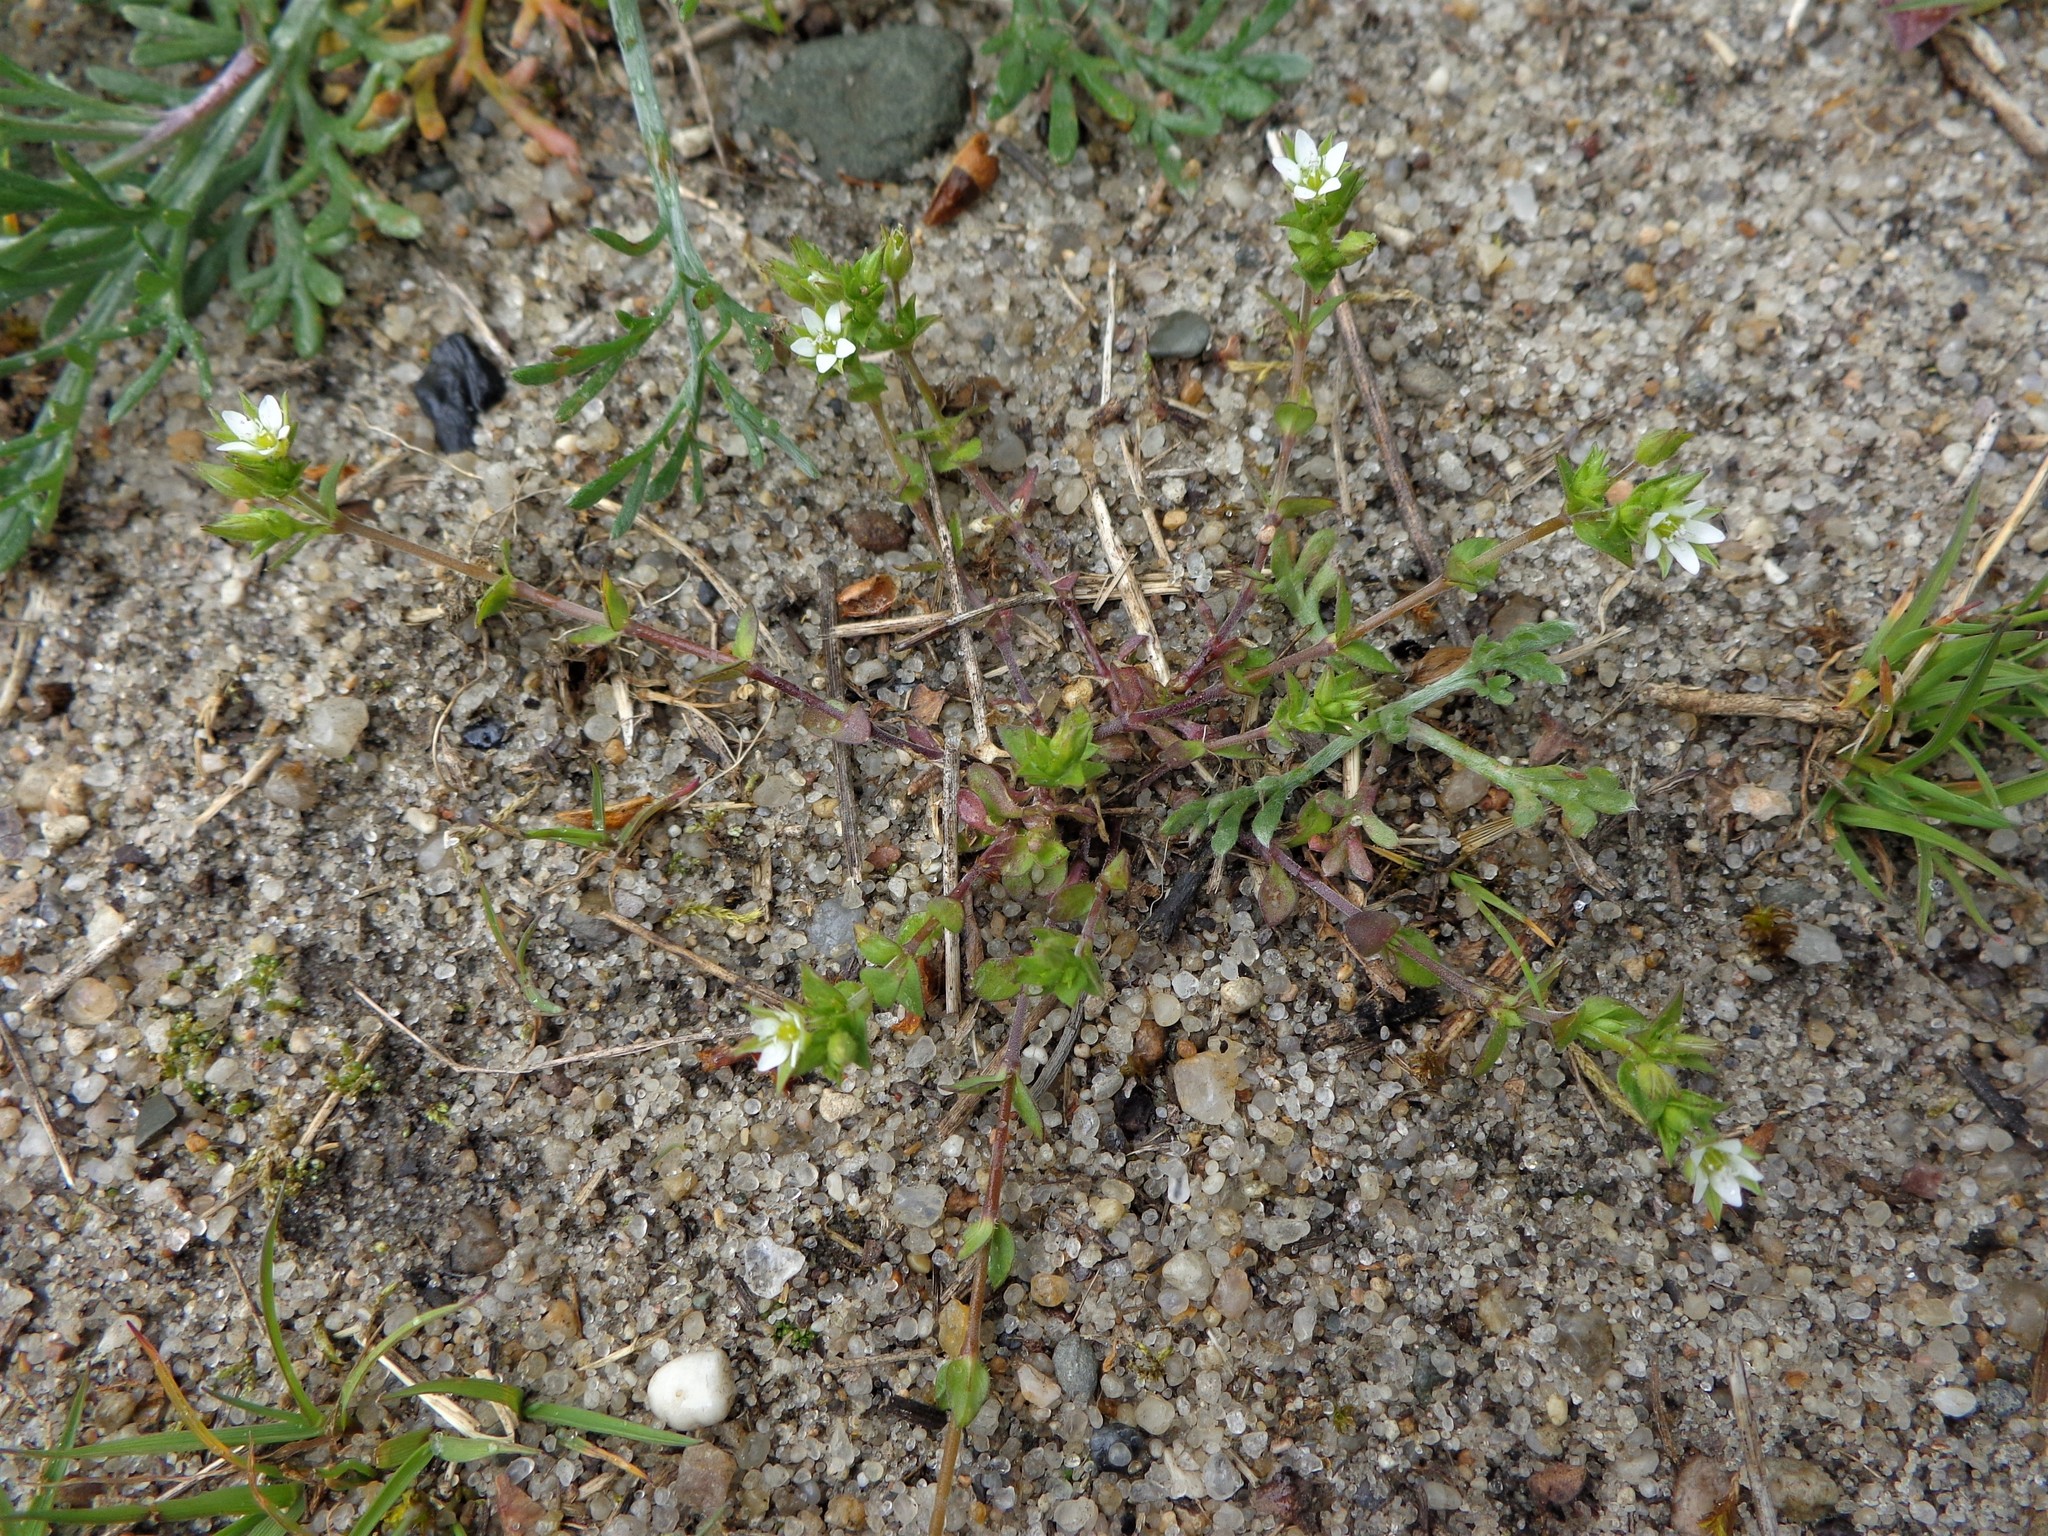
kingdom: Plantae
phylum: Tracheophyta
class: Magnoliopsida
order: Caryophyllales
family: Caryophyllaceae
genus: Arenaria
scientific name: Arenaria serpyllifolia
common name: Thyme-leaved sandwort
